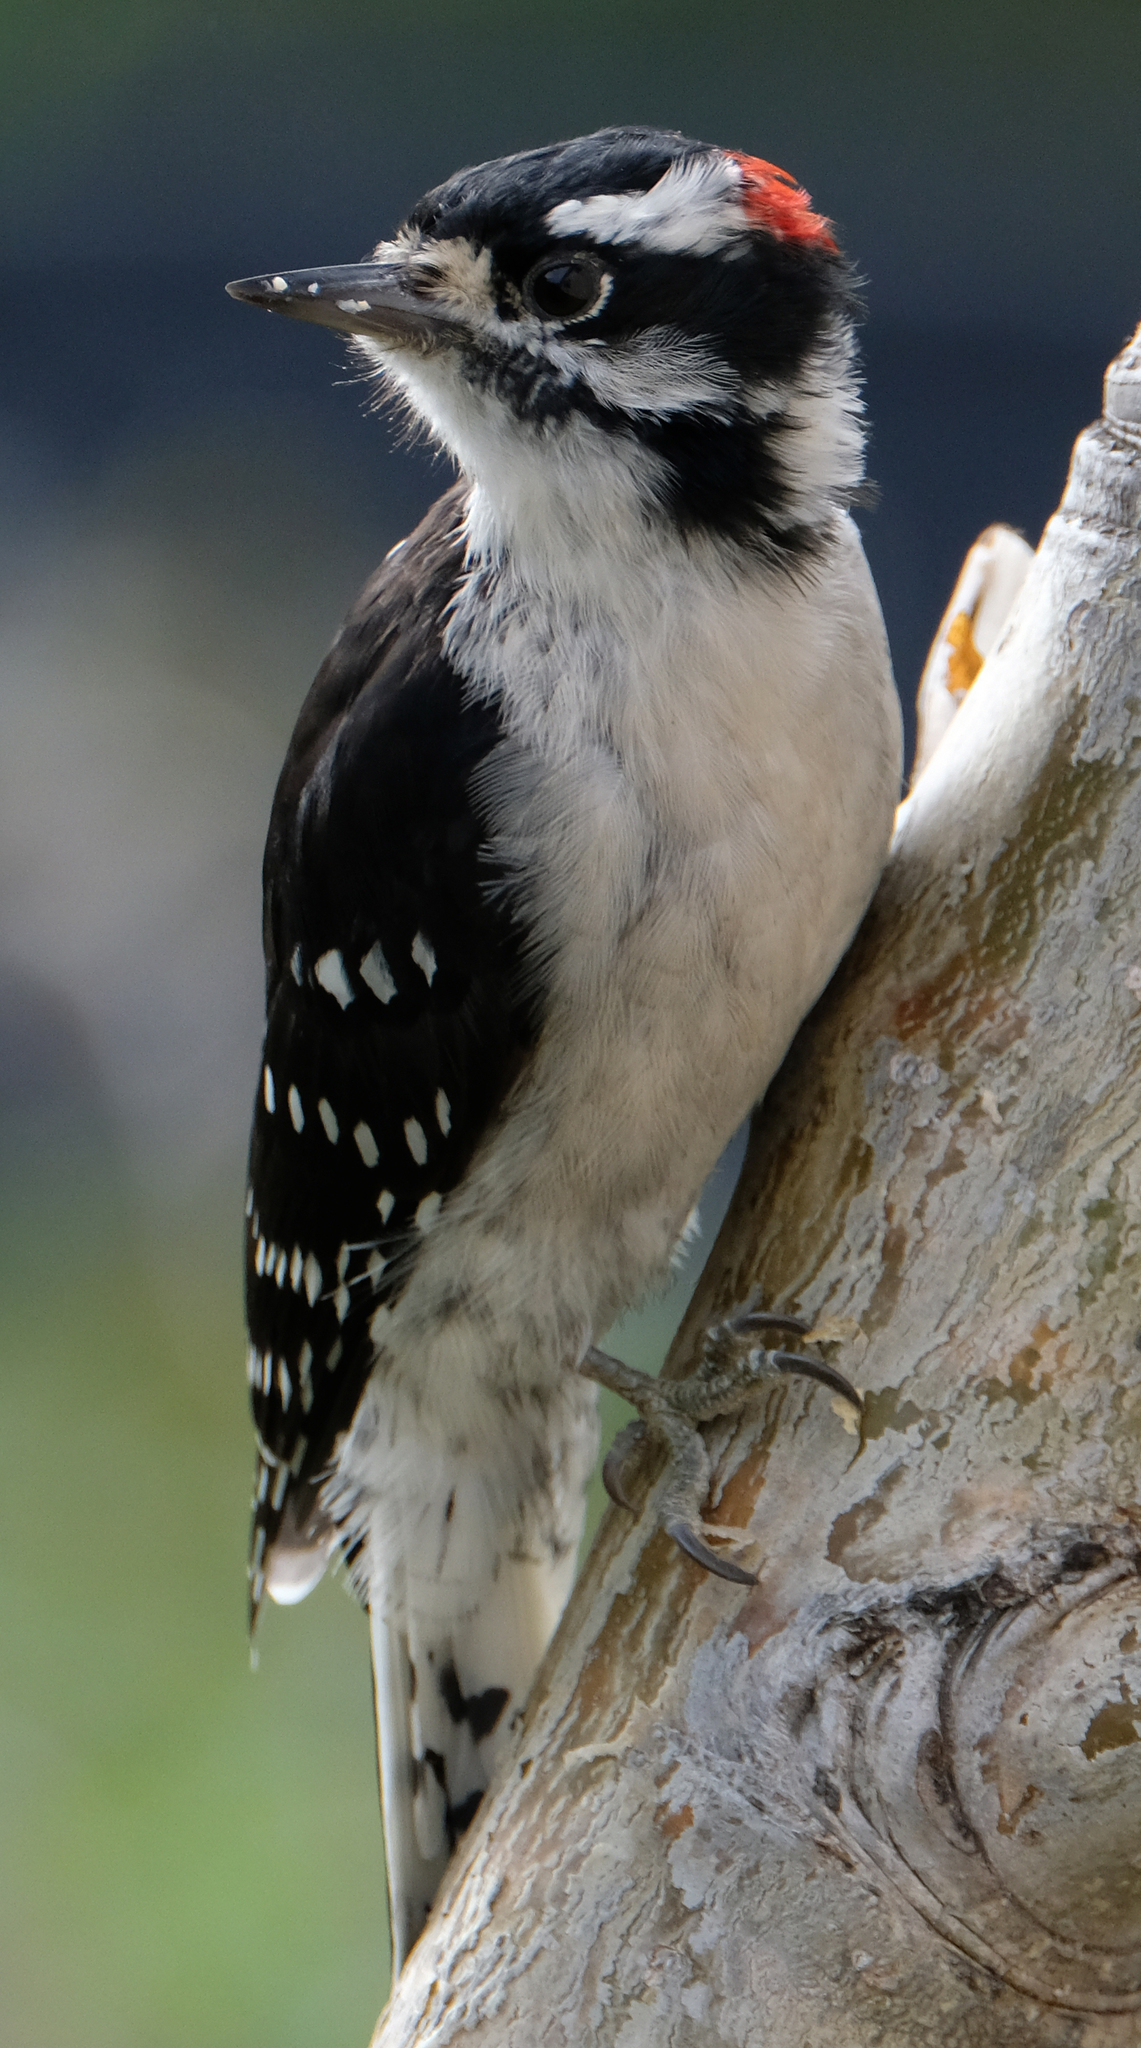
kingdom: Animalia
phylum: Chordata
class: Aves
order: Piciformes
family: Picidae
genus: Dryobates
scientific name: Dryobates pubescens
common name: Downy woodpecker
